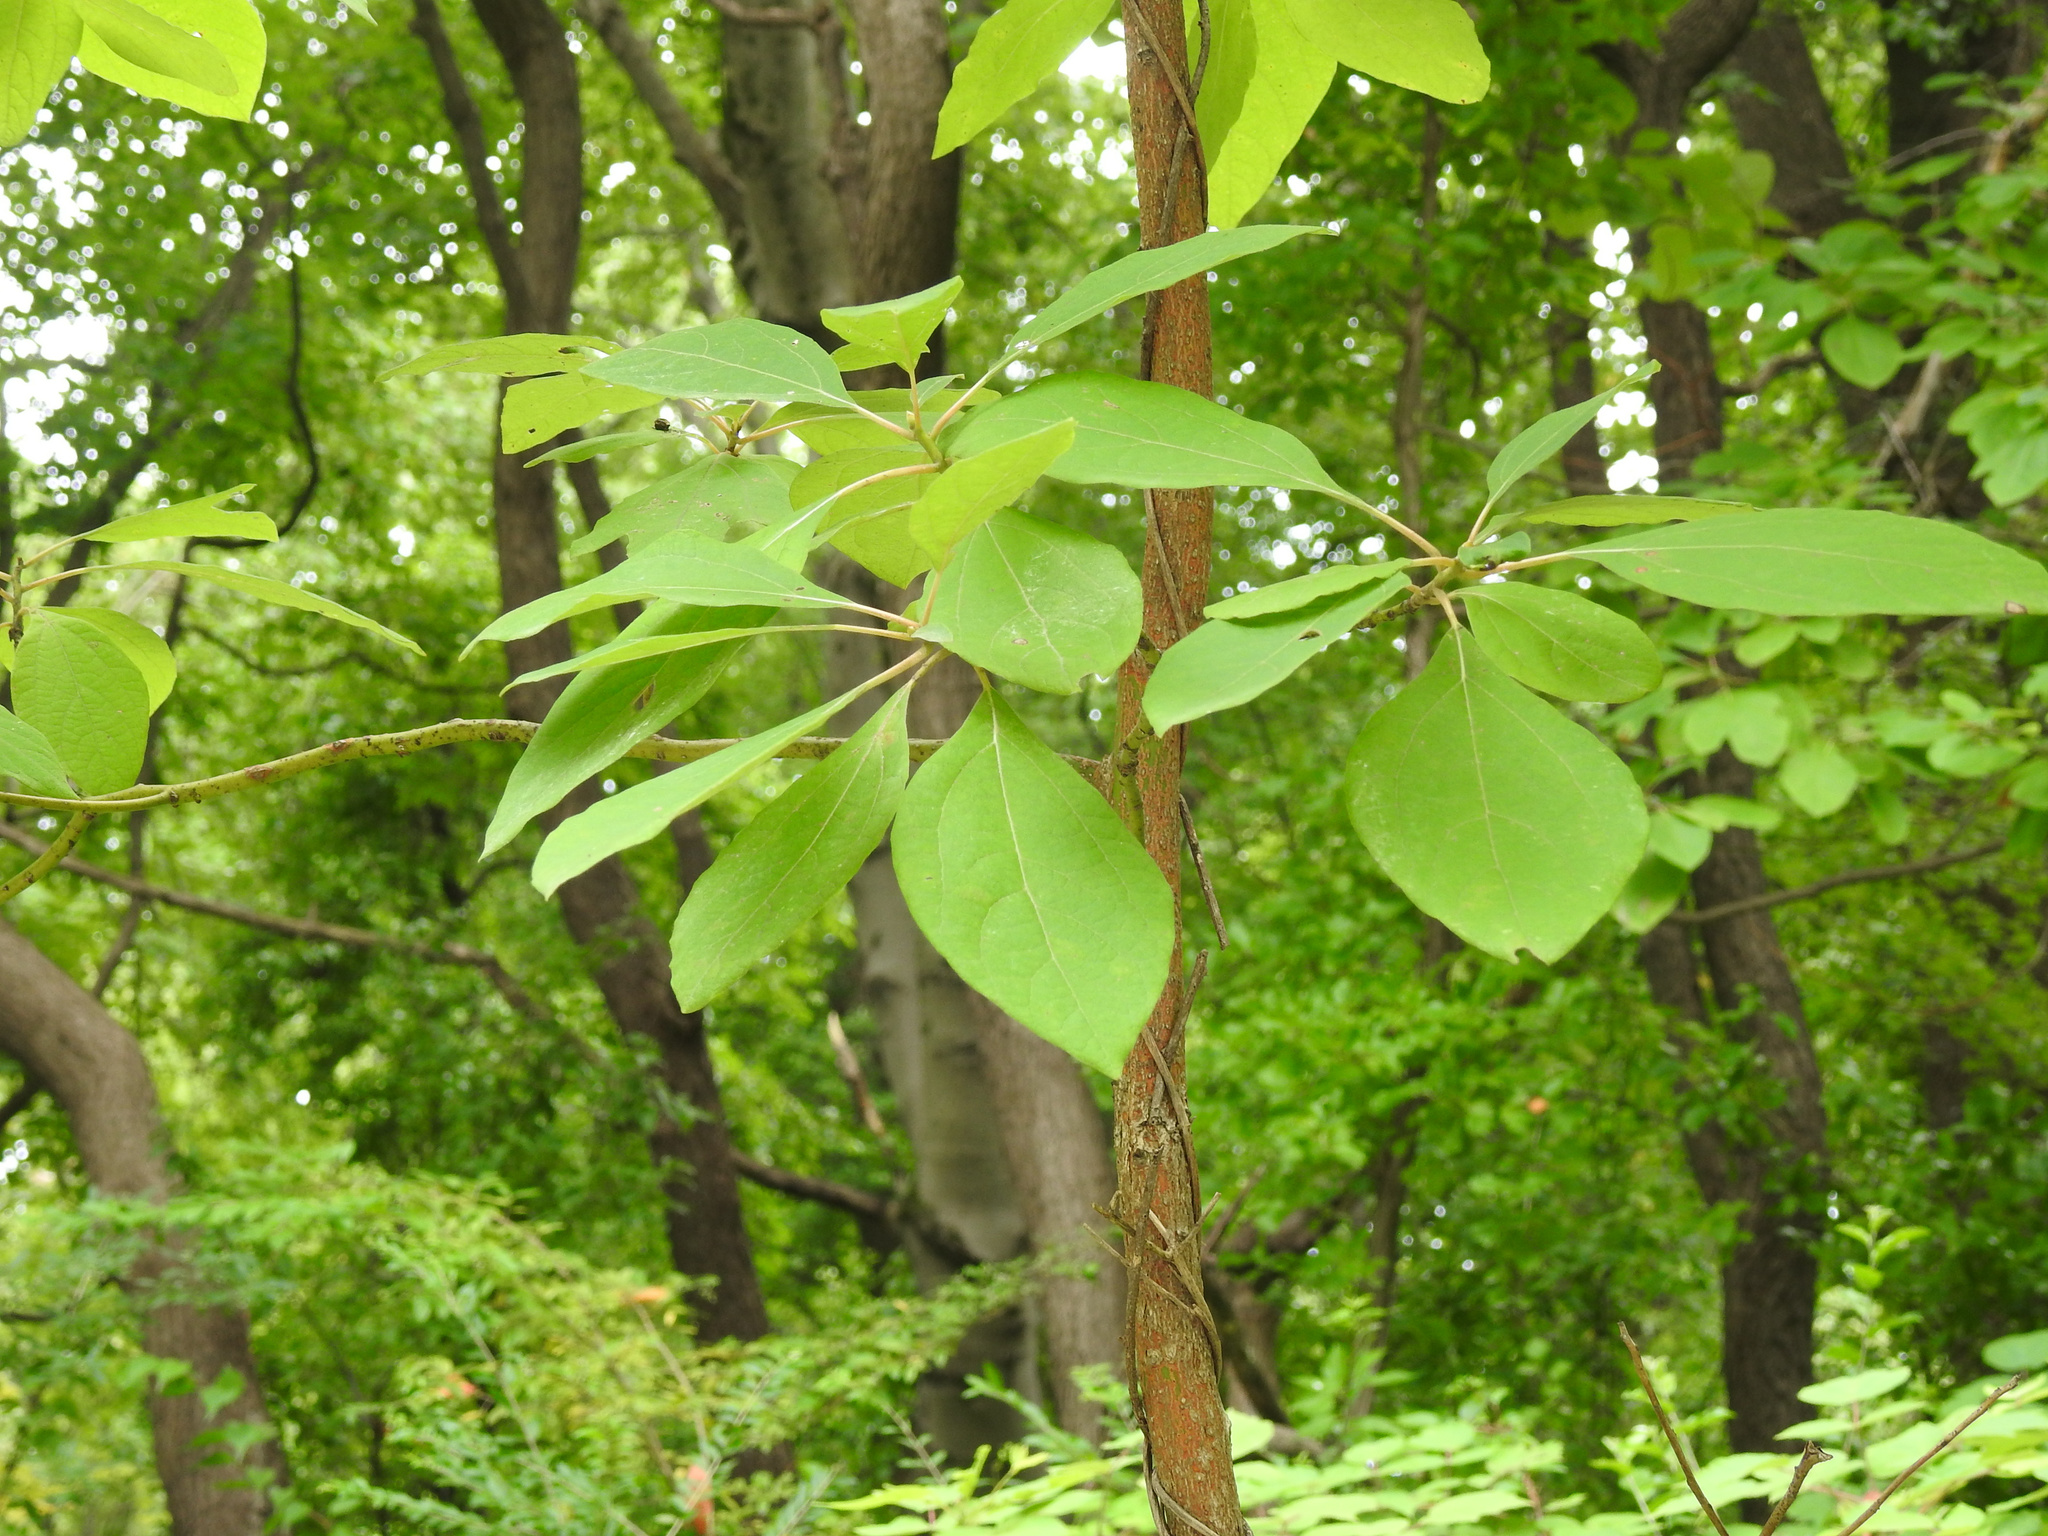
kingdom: Plantae
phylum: Tracheophyta
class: Magnoliopsida
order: Laurales
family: Lauraceae
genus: Sassafras
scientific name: Sassafras albidum
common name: Sassafras
